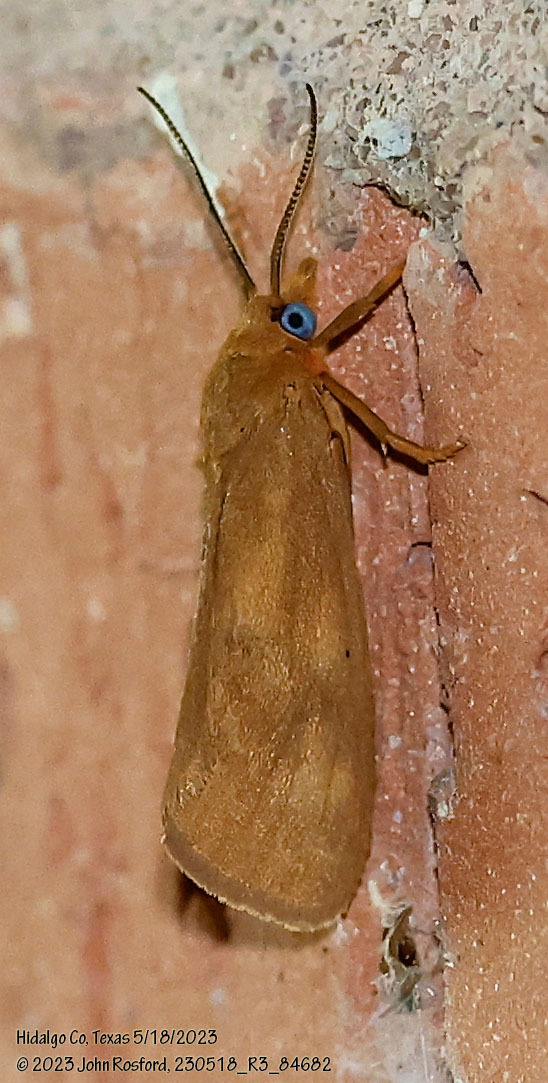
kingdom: Animalia
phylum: Arthropoda
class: Insecta
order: Lepidoptera
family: Erebidae
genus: Virbia
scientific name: Virbia aurantiaca
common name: Orange virbia moth
